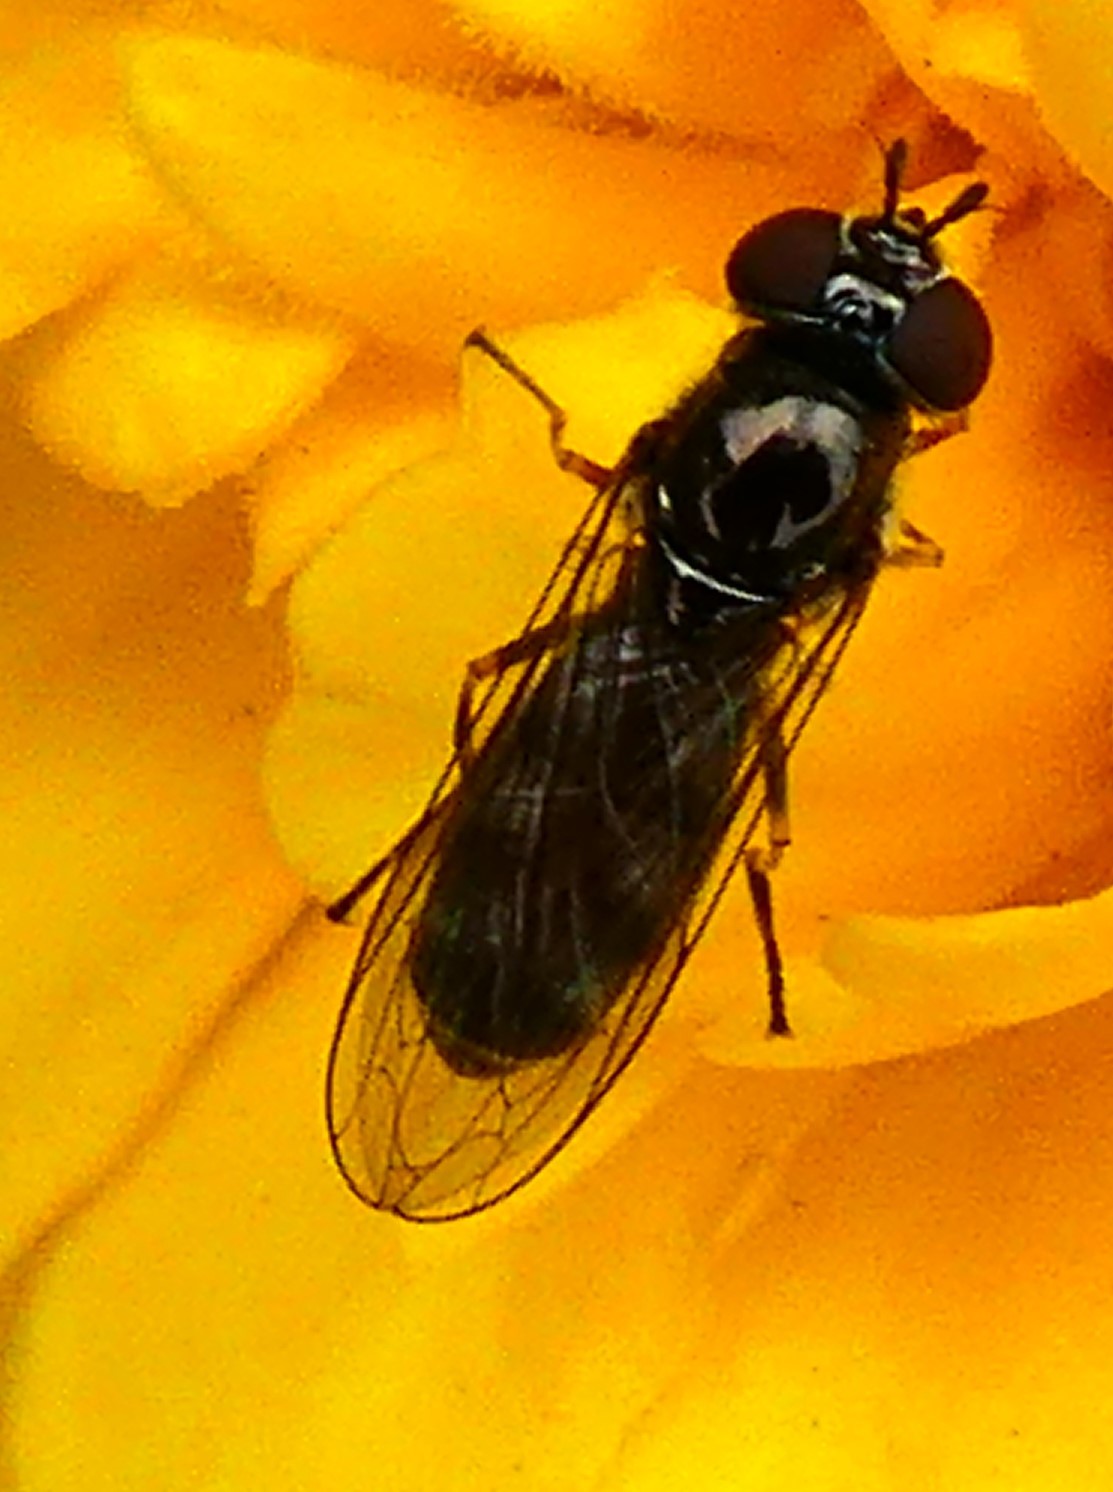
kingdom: Animalia
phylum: Arthropoda
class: Insecta
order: Diptera
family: Syrphidae
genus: Platycheirus
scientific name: Platycheirus albimanus
